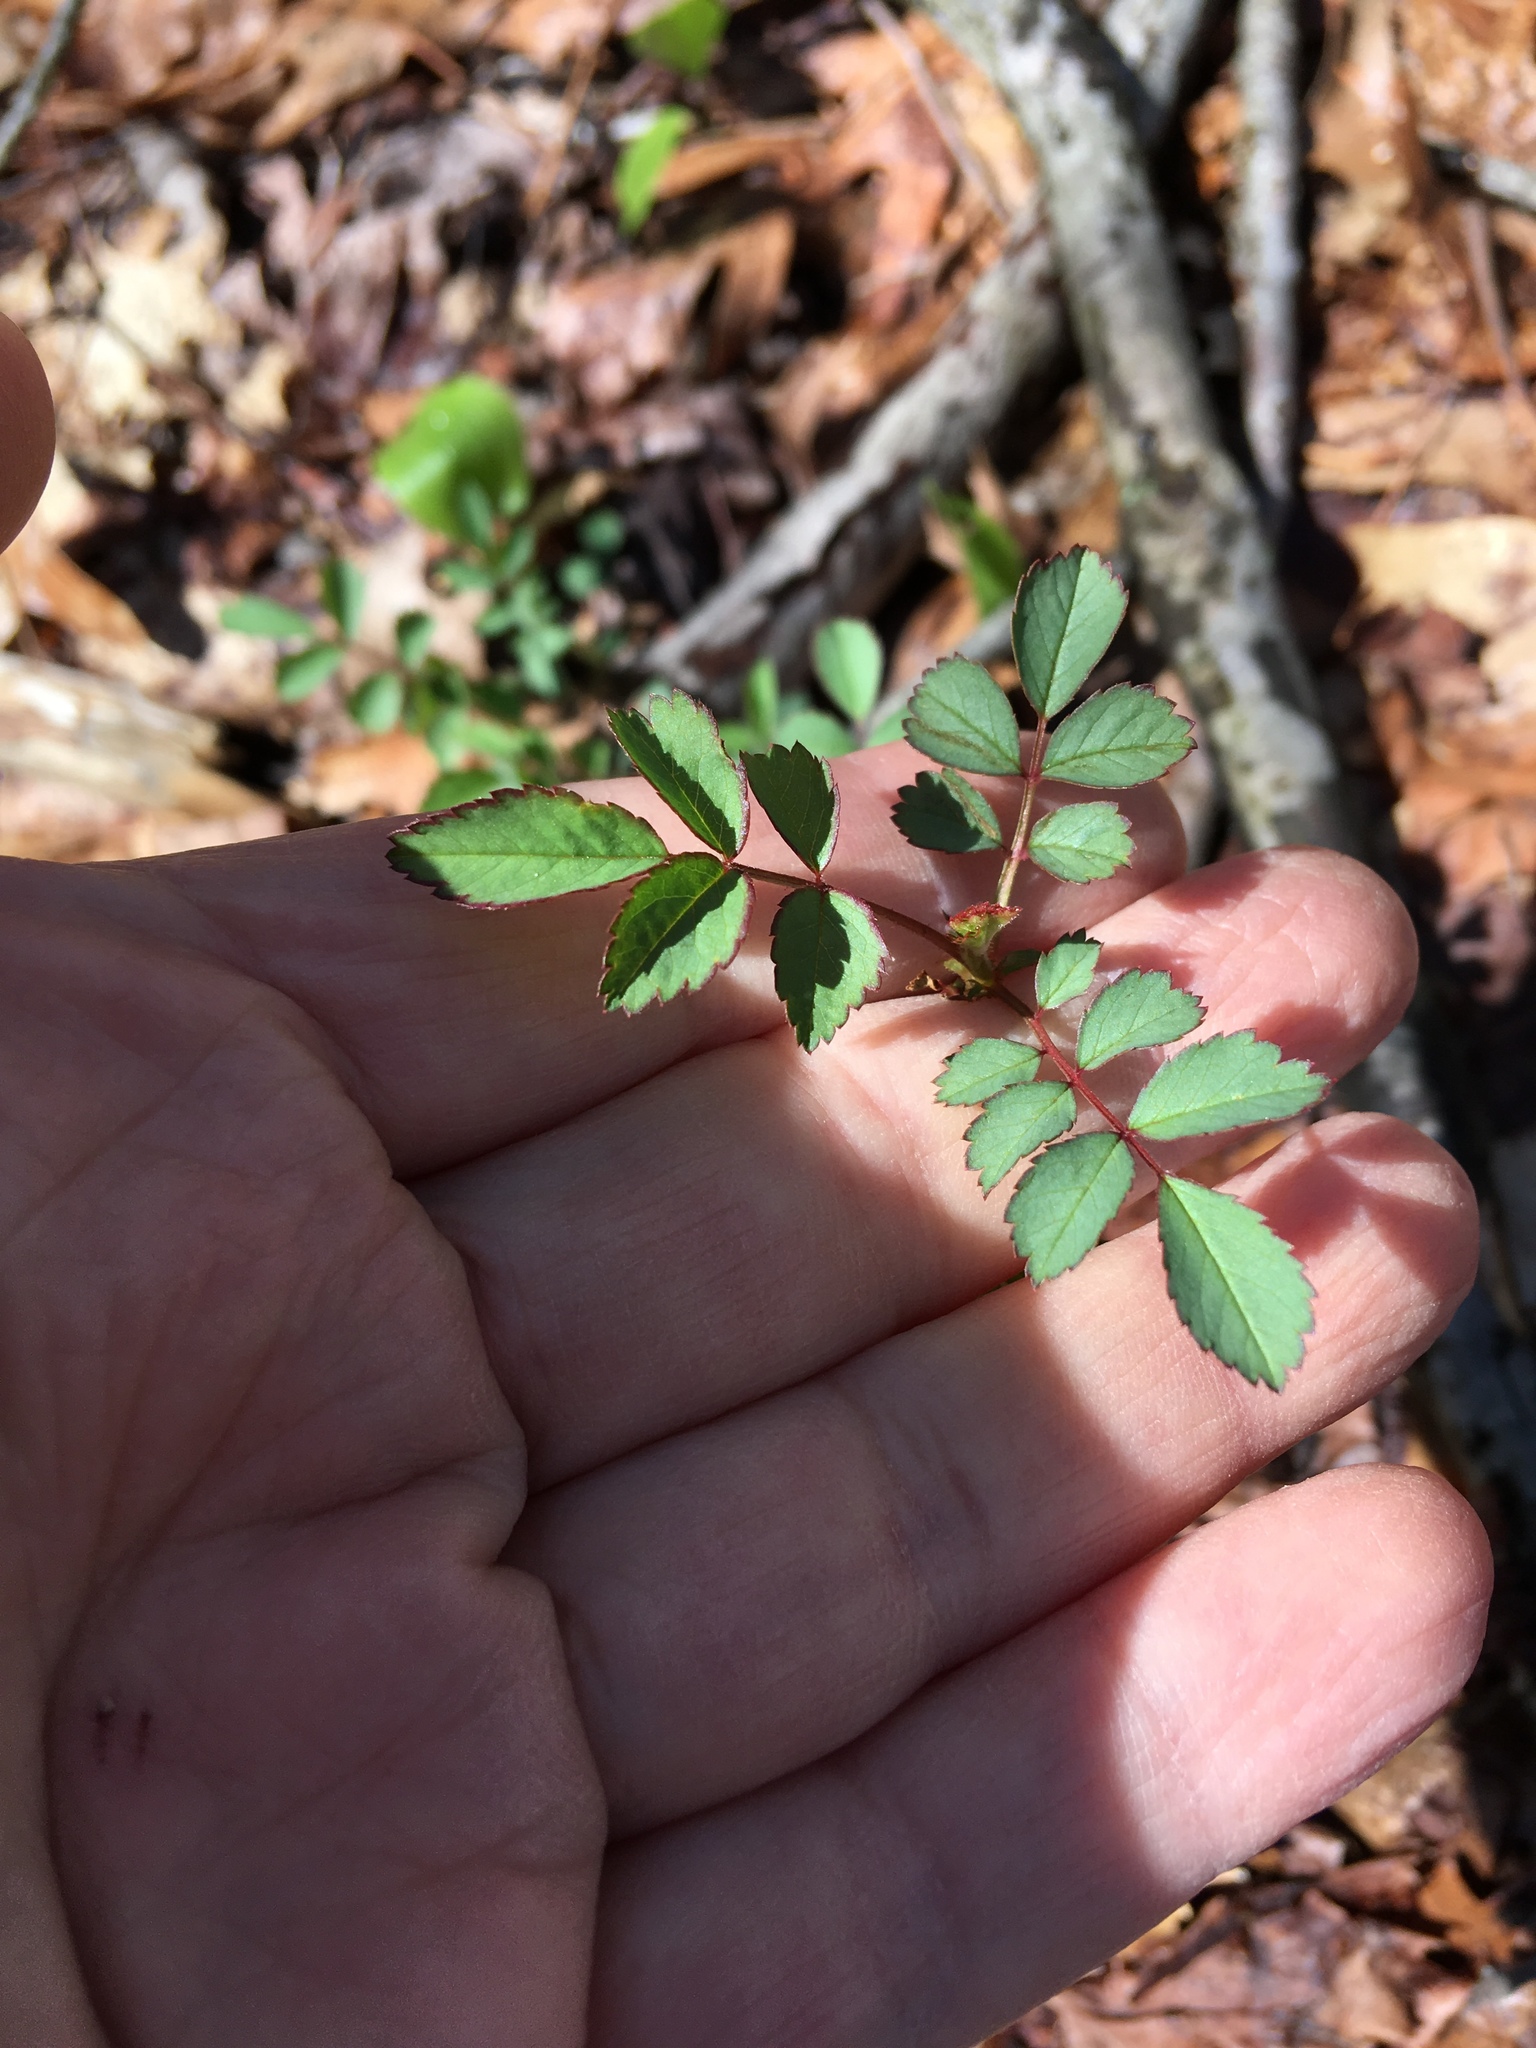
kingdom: Plantae
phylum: Tracheophyta
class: Magnoliopsida
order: Rosales
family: Rosaceae
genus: Rosa
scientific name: Rosa multiflora
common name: Multiflora rose
